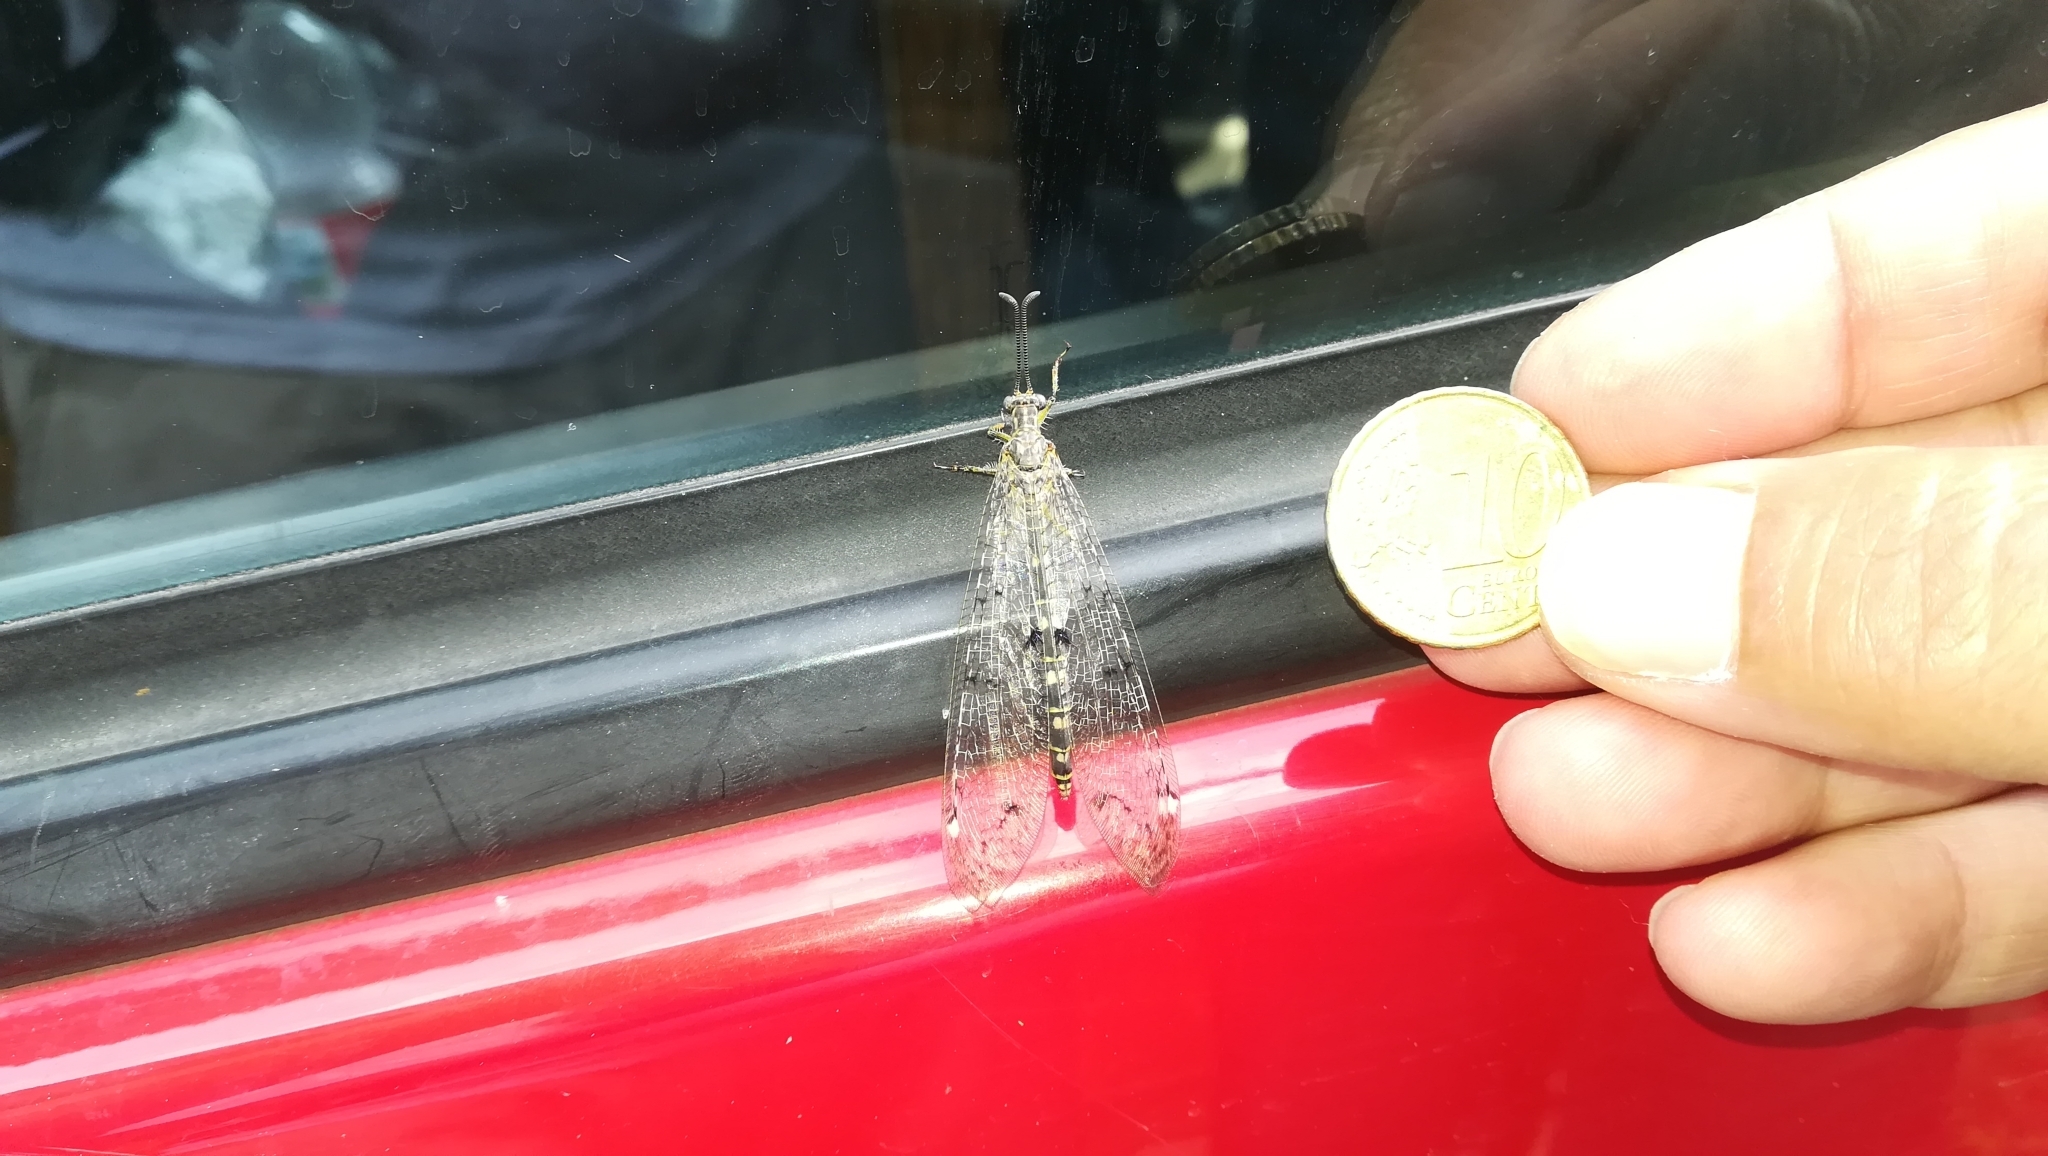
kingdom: Animalia
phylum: Arthropoda
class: Insecta
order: Neuroptera
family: Myrmeleontidae
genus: Distoleon
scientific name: Distoleon tetragrammicus
